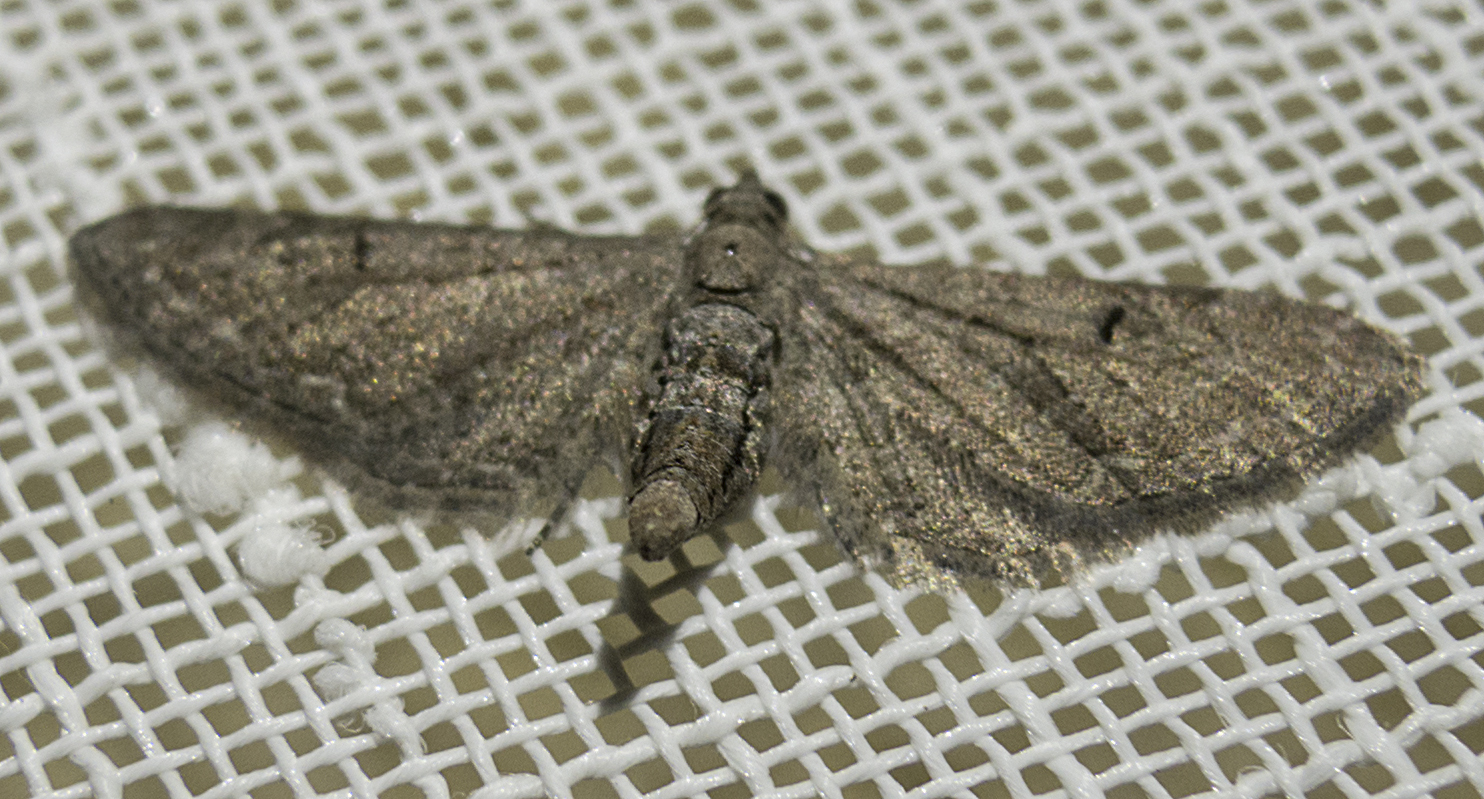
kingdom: Animalia
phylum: Arthropoda
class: Insecta
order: Lepidoptera
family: Geometridae
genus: Eupithecia
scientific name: Eupithecia innotata
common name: Angle-barred pug
